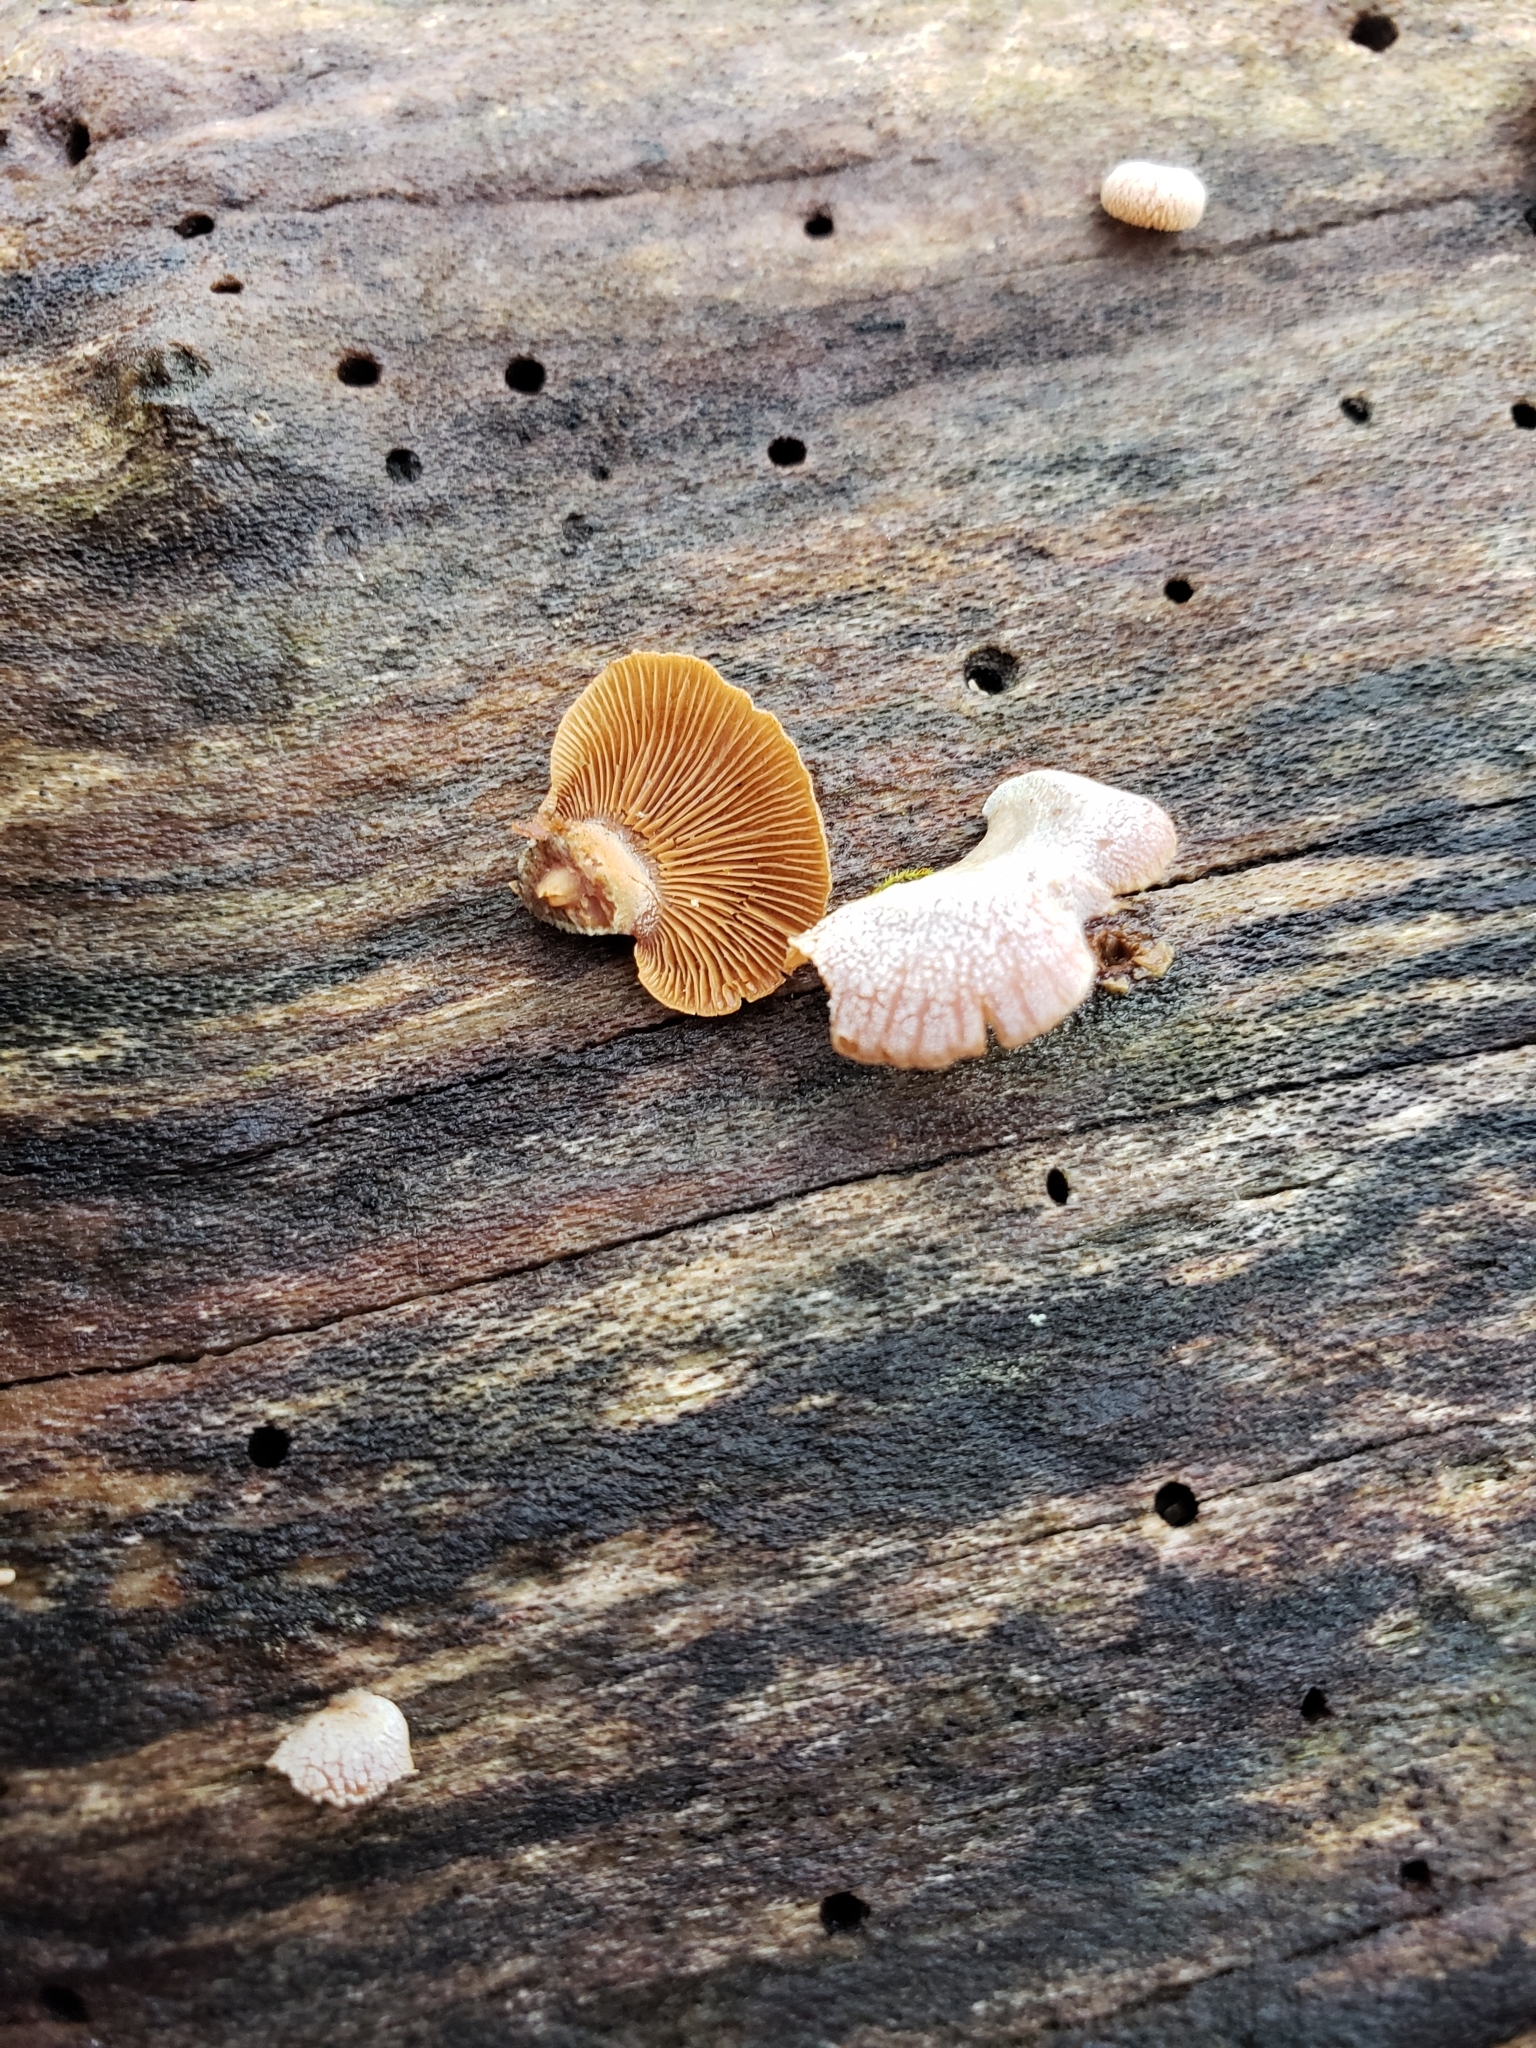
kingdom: Fungi
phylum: Basidiomycota
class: Agaricomycetes
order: Agaricales
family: Mycenaceae
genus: Panellus
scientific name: Panellus stipticus
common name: Bitter oysterling
